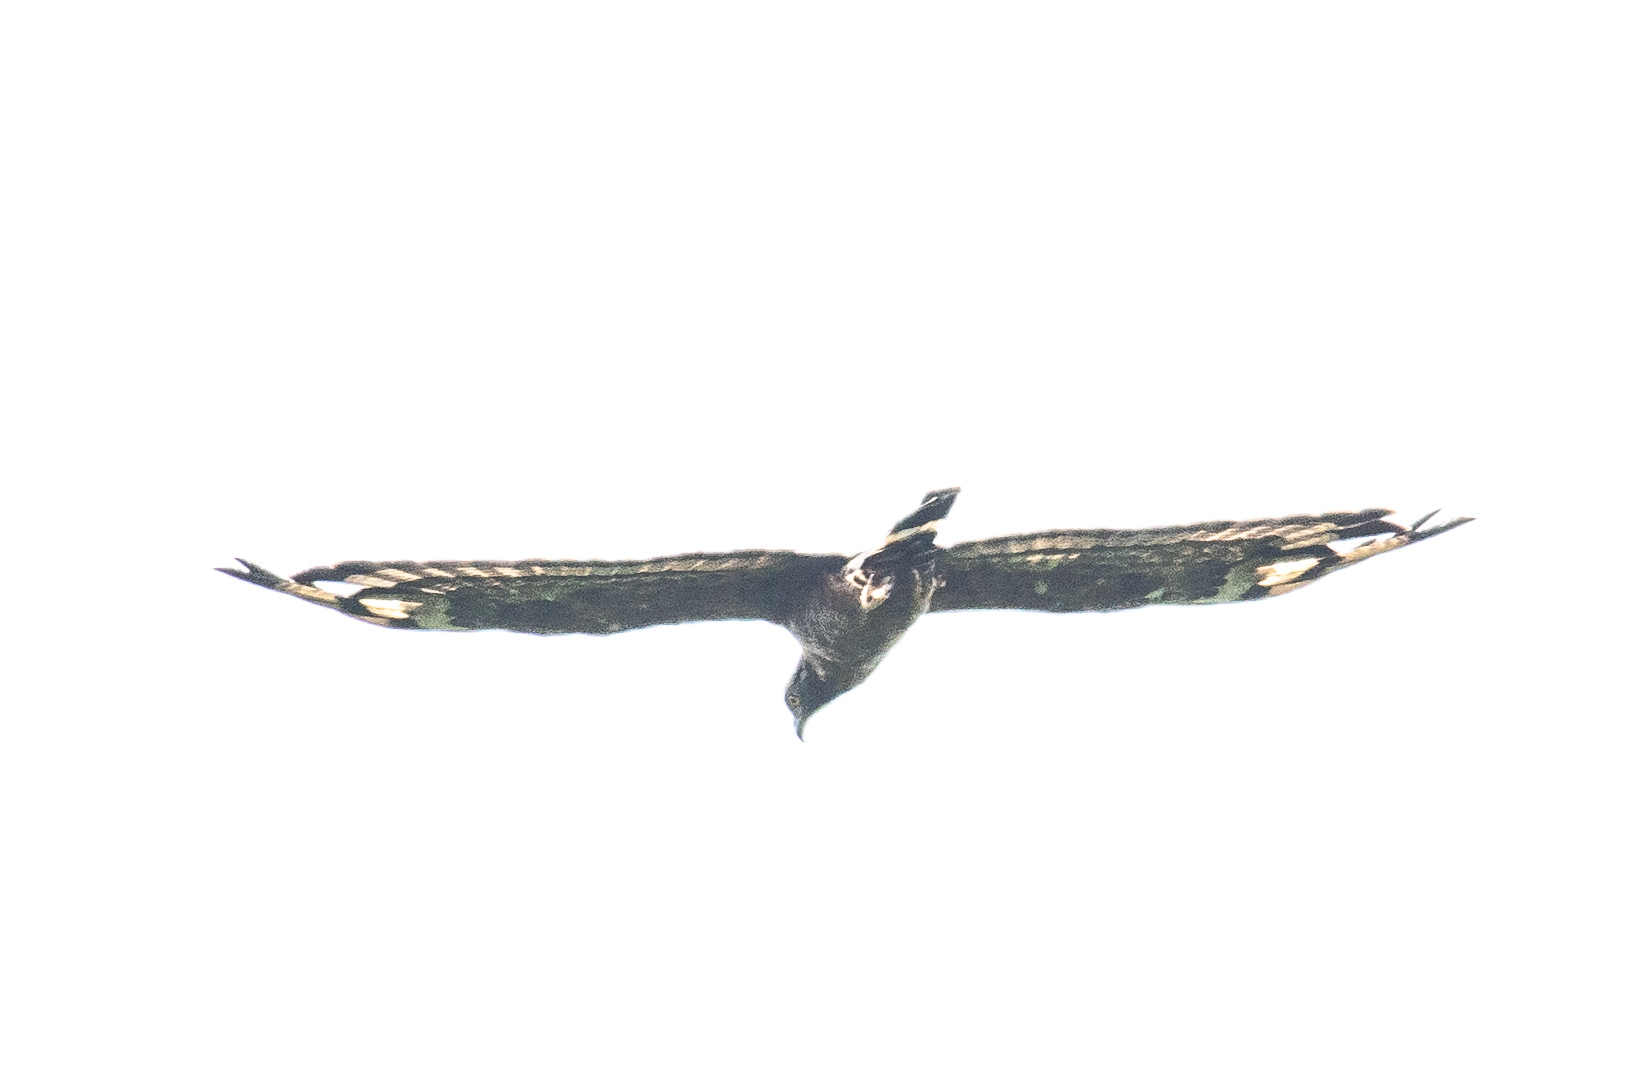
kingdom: Animalia
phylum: Chordata
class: Aves
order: Accipitriformes
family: Accipitridae
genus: Pernis
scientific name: Pernis ptilorhynchus
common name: Crested honey buzzard
